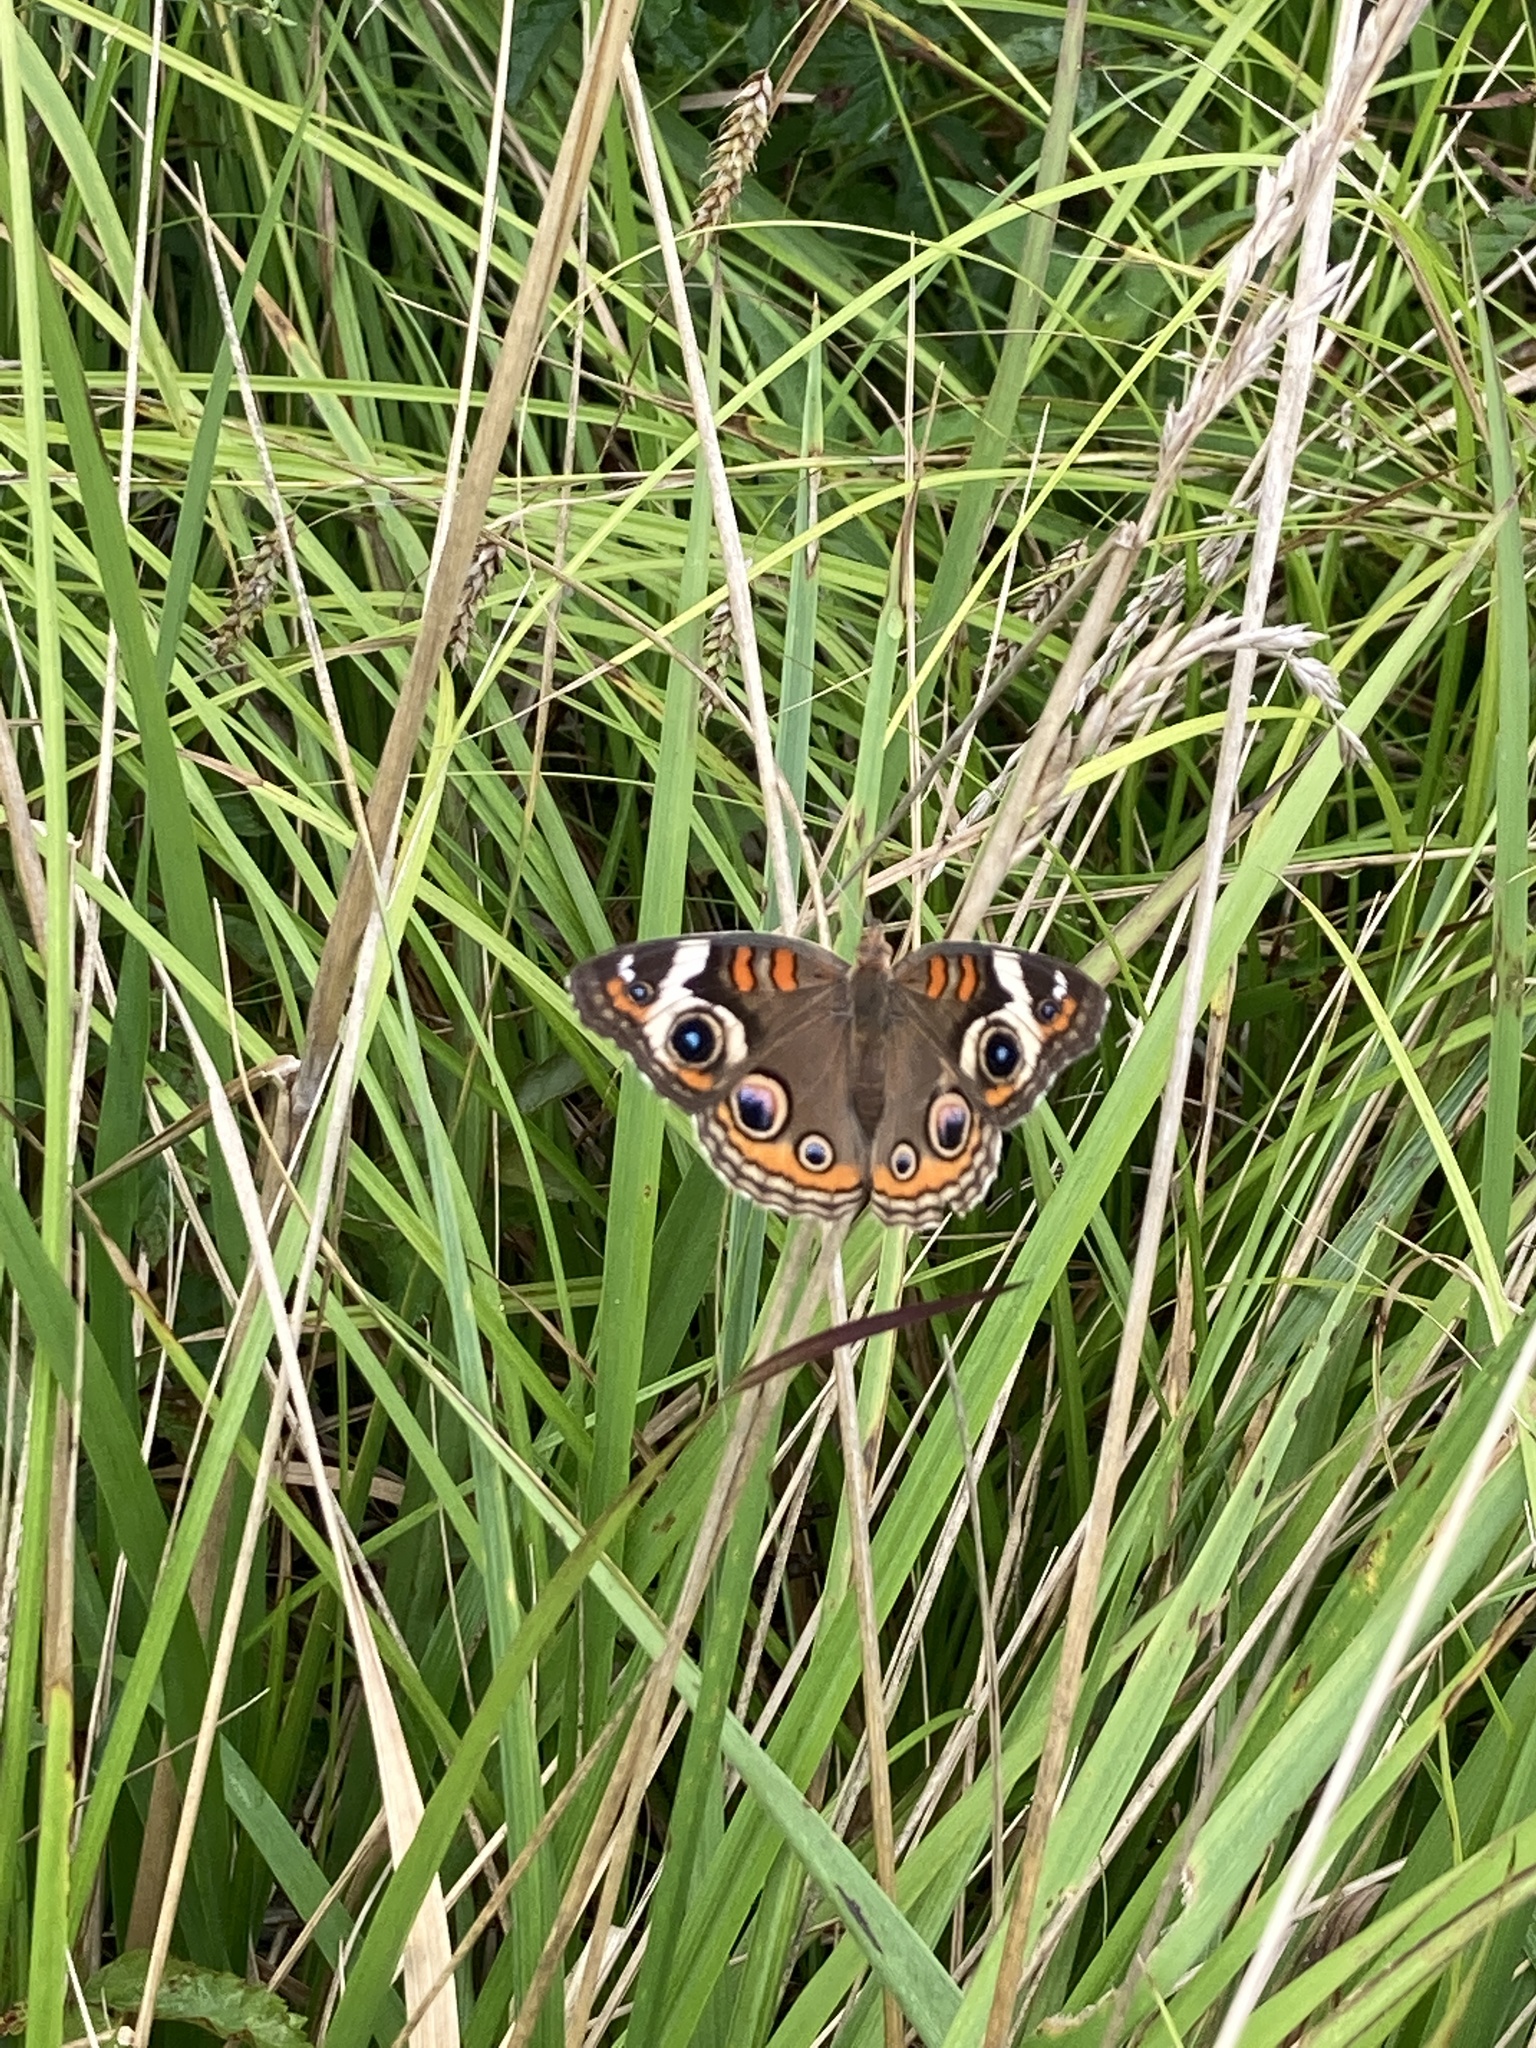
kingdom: Animalia
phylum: Arthropoda
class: Insecta
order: Lepidoptera
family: Nymphalidae
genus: Junonia
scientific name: Junonia coenia
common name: Common buckeye
